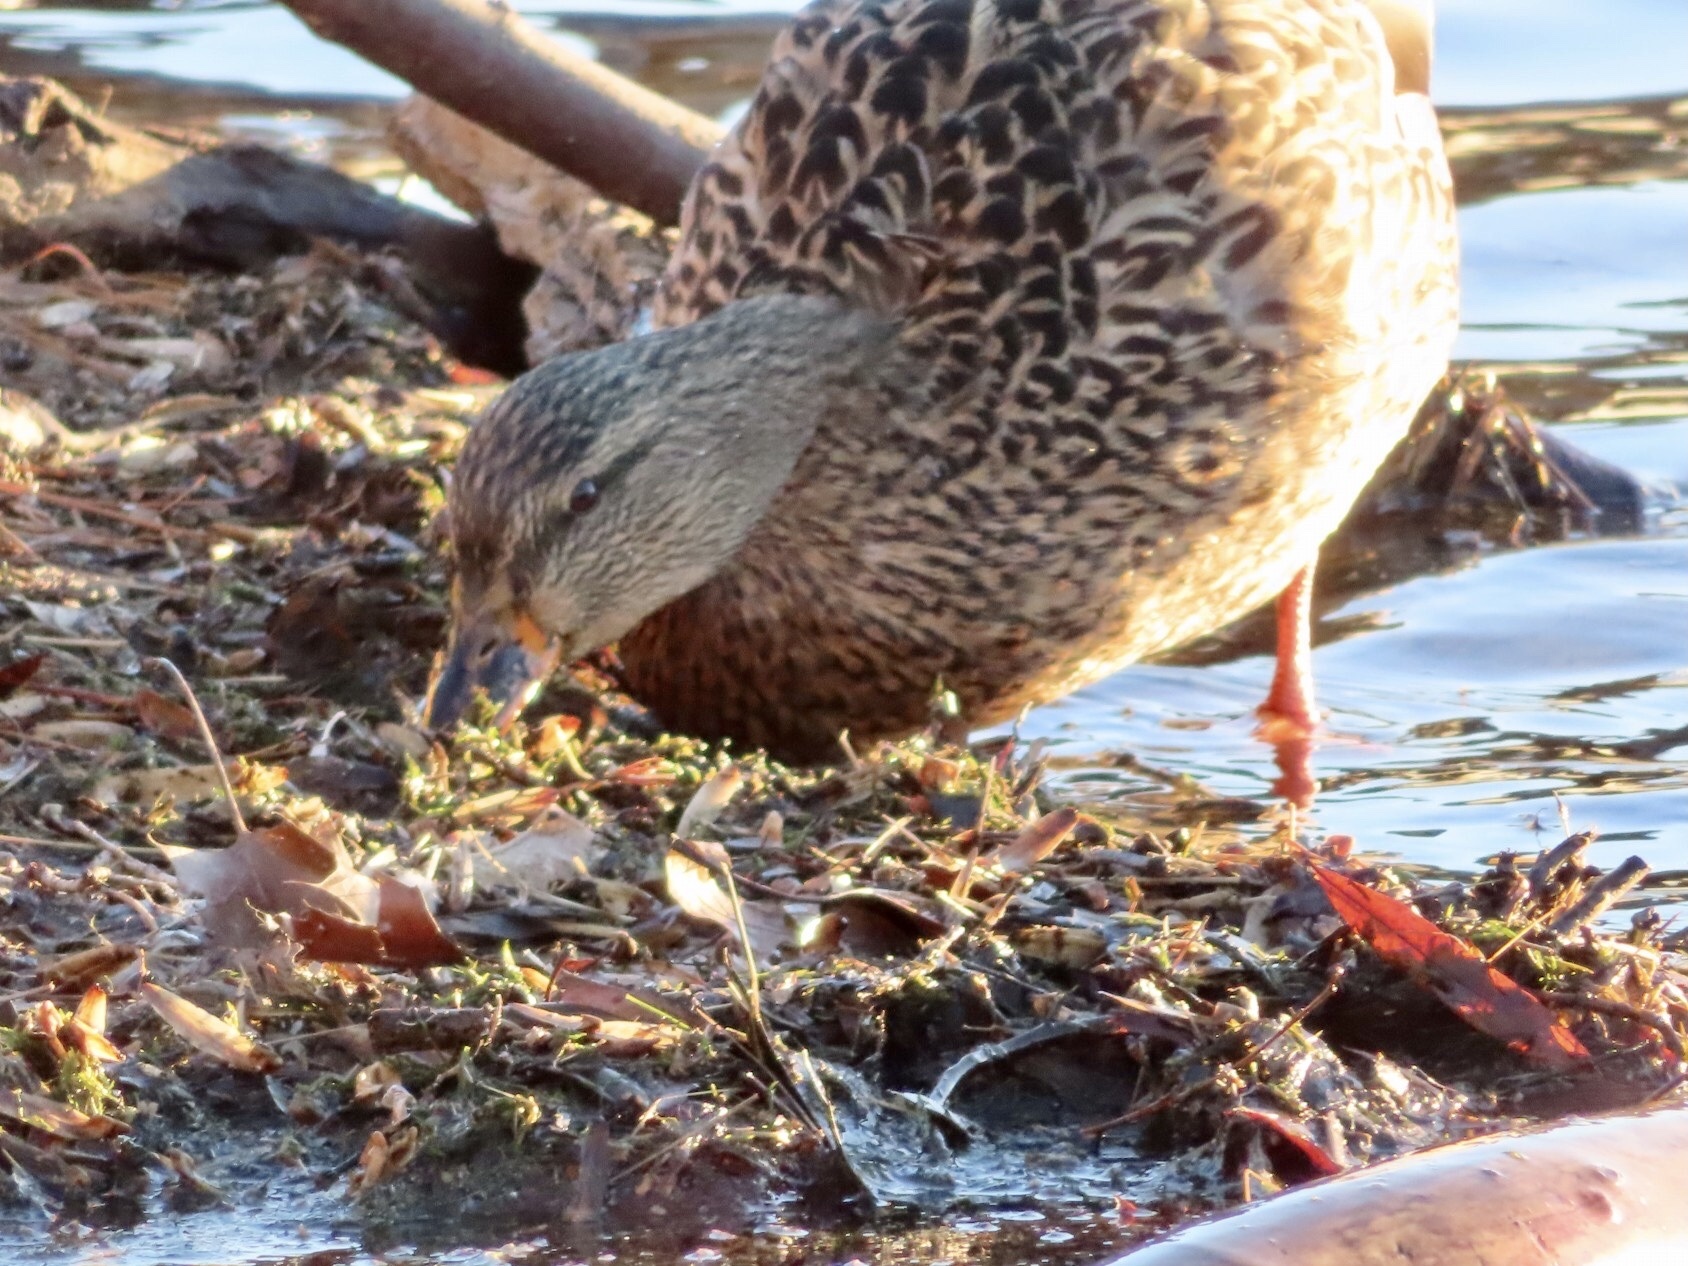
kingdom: Animalia
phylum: Chordata
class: Aves
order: Anseriformes
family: Anatidae
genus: Anas
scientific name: Anas platyrhynchos
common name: Mallard
